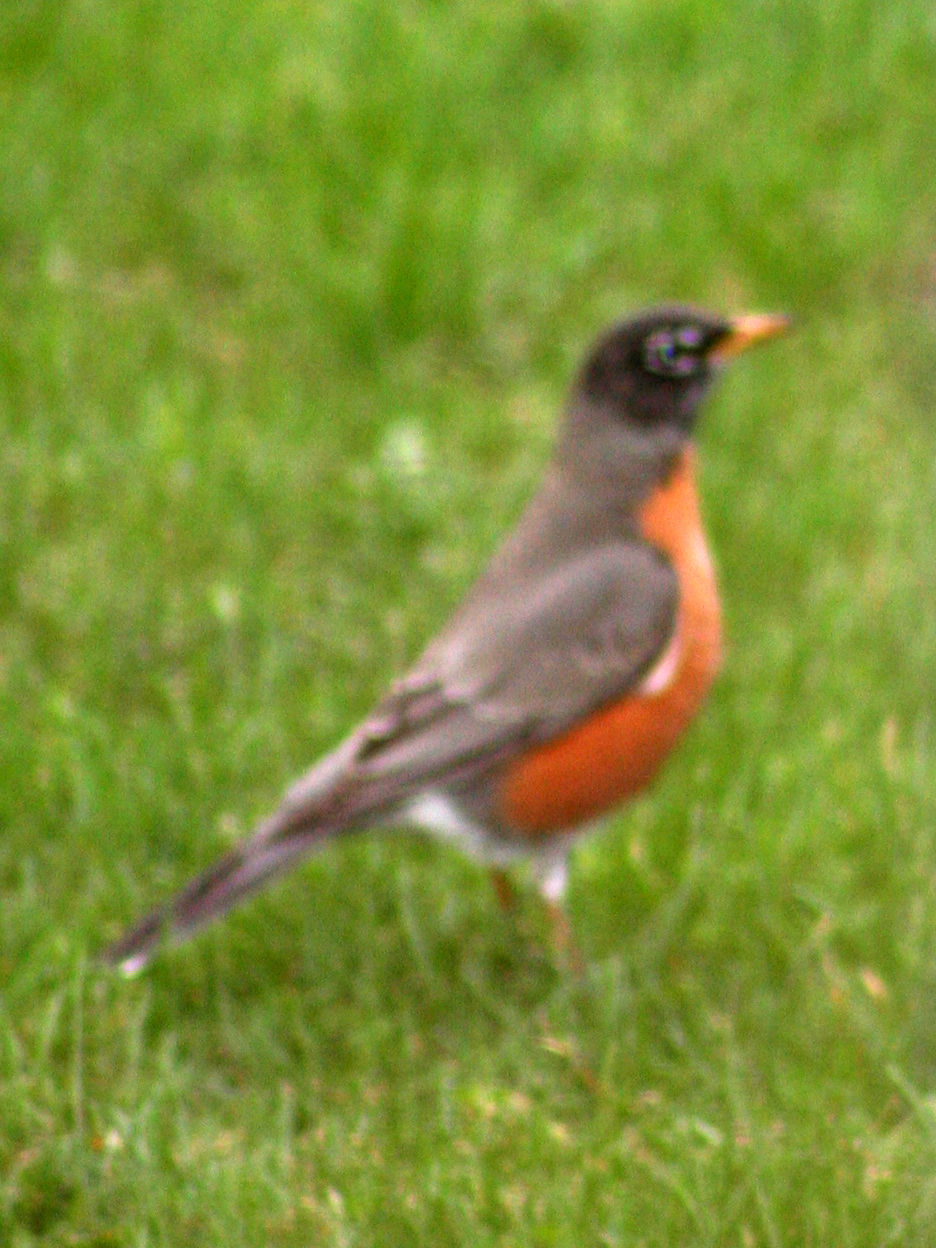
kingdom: Animalia
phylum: Chordata
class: Aves
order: Passeriformes
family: Turdidae
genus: Turdus
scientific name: Turdus migratorius
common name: American robin
